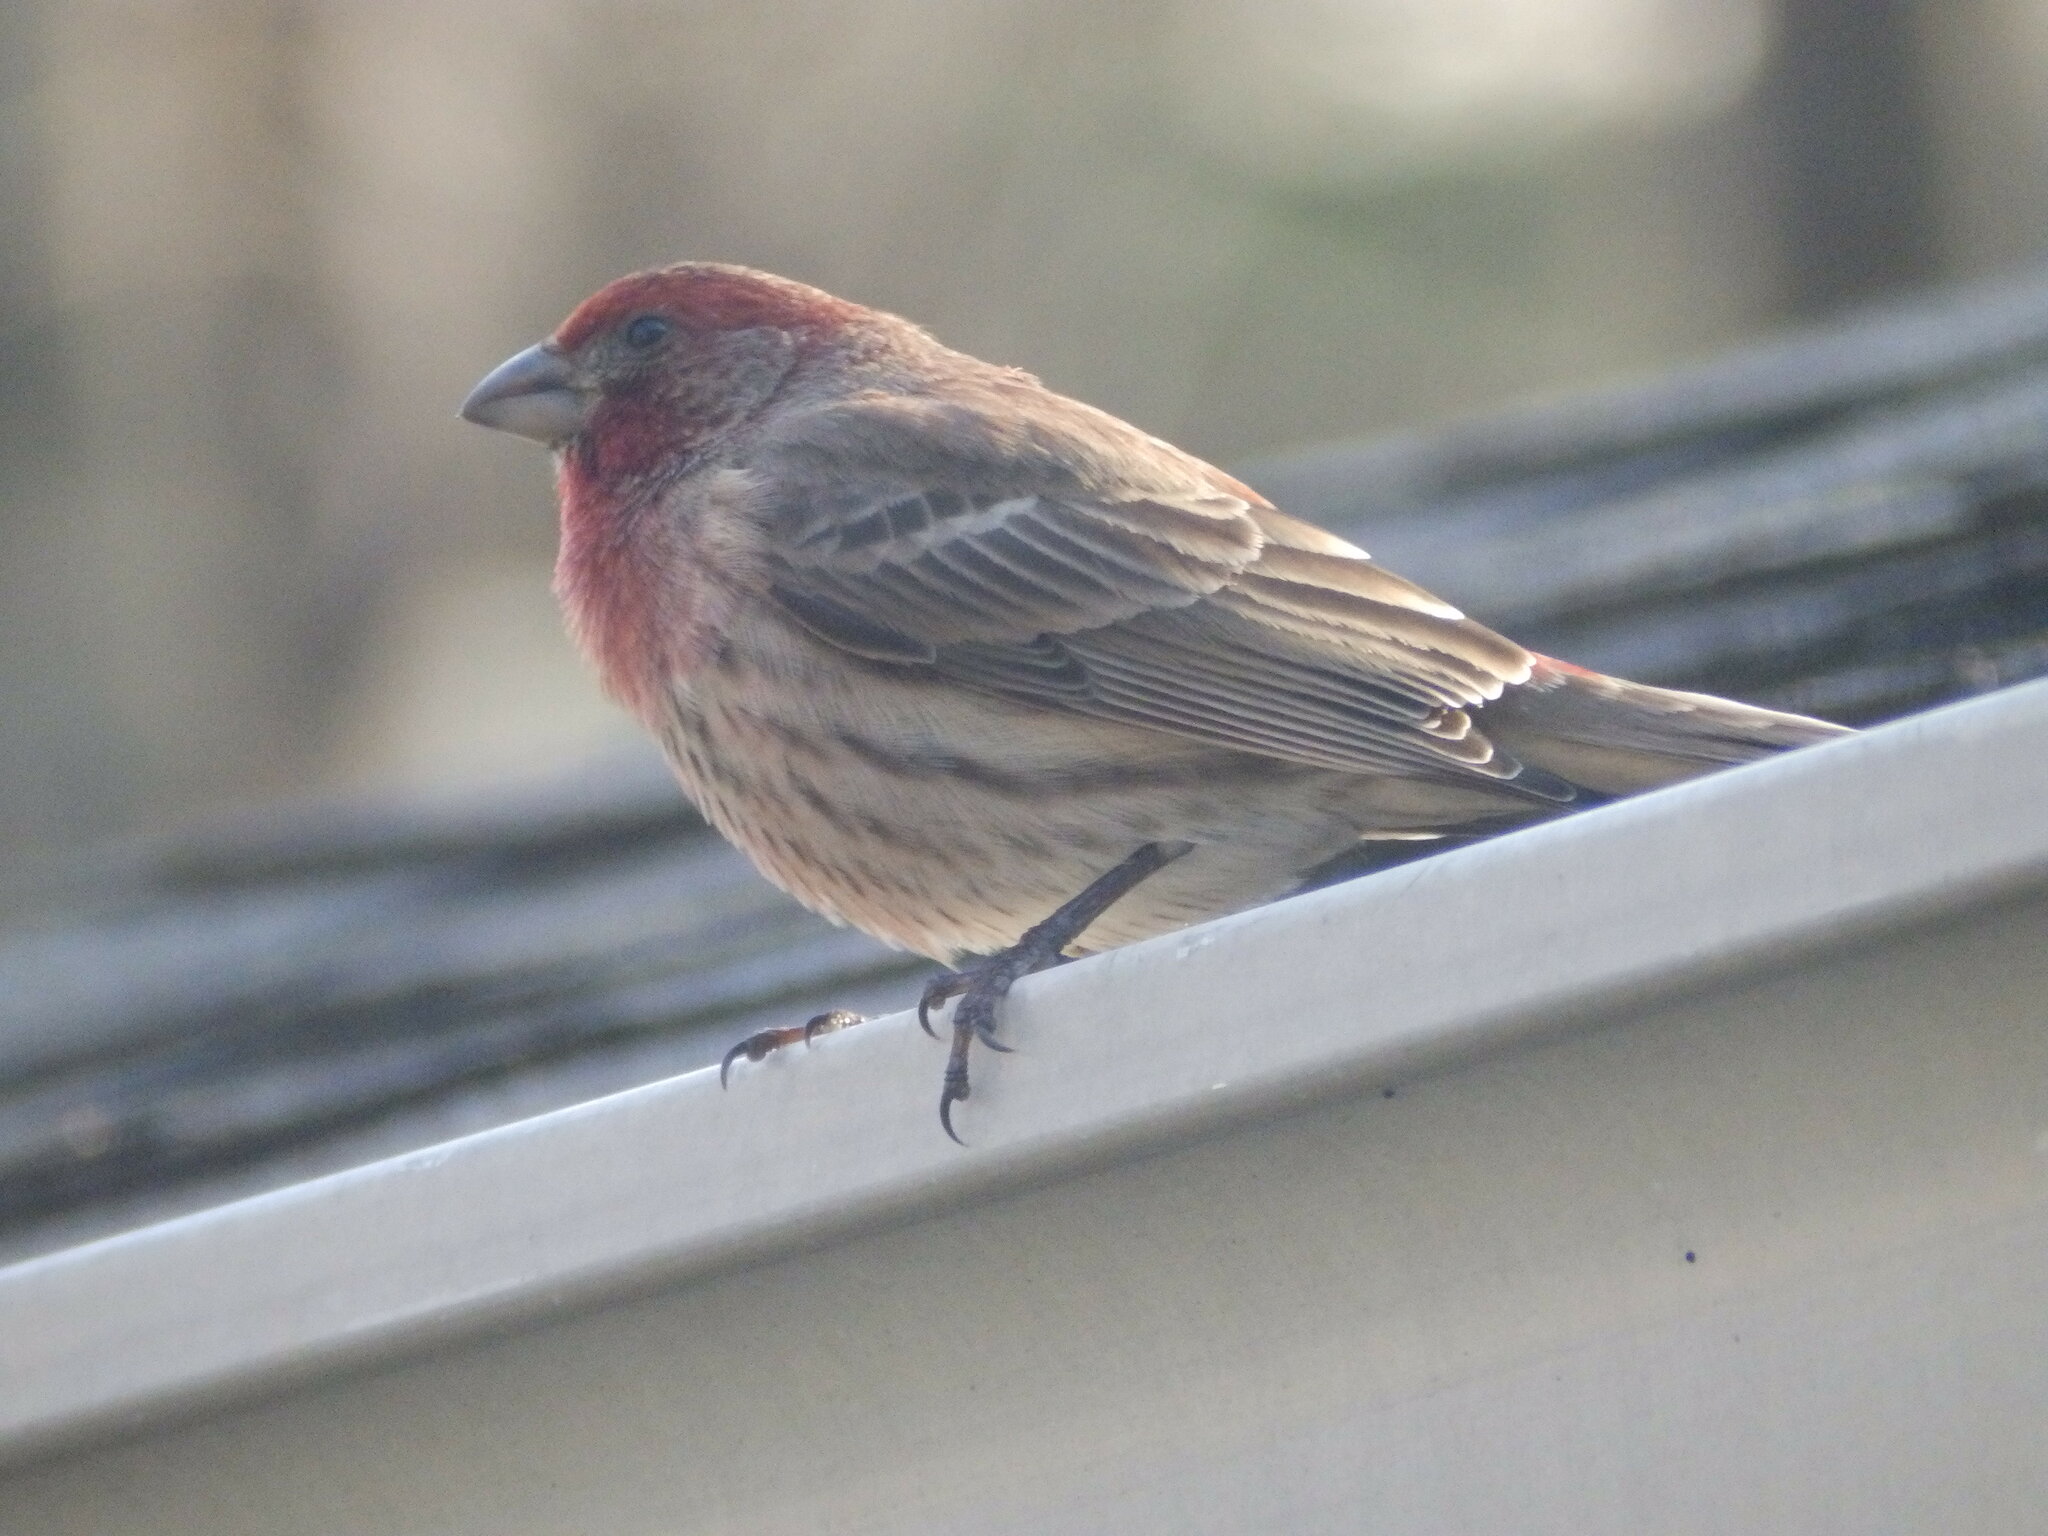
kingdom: Animalia
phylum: Chordata
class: Aves
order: Passeriformes
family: Fringillidae
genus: Haemorhous
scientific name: Haemorhous mexicanus
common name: House finch
